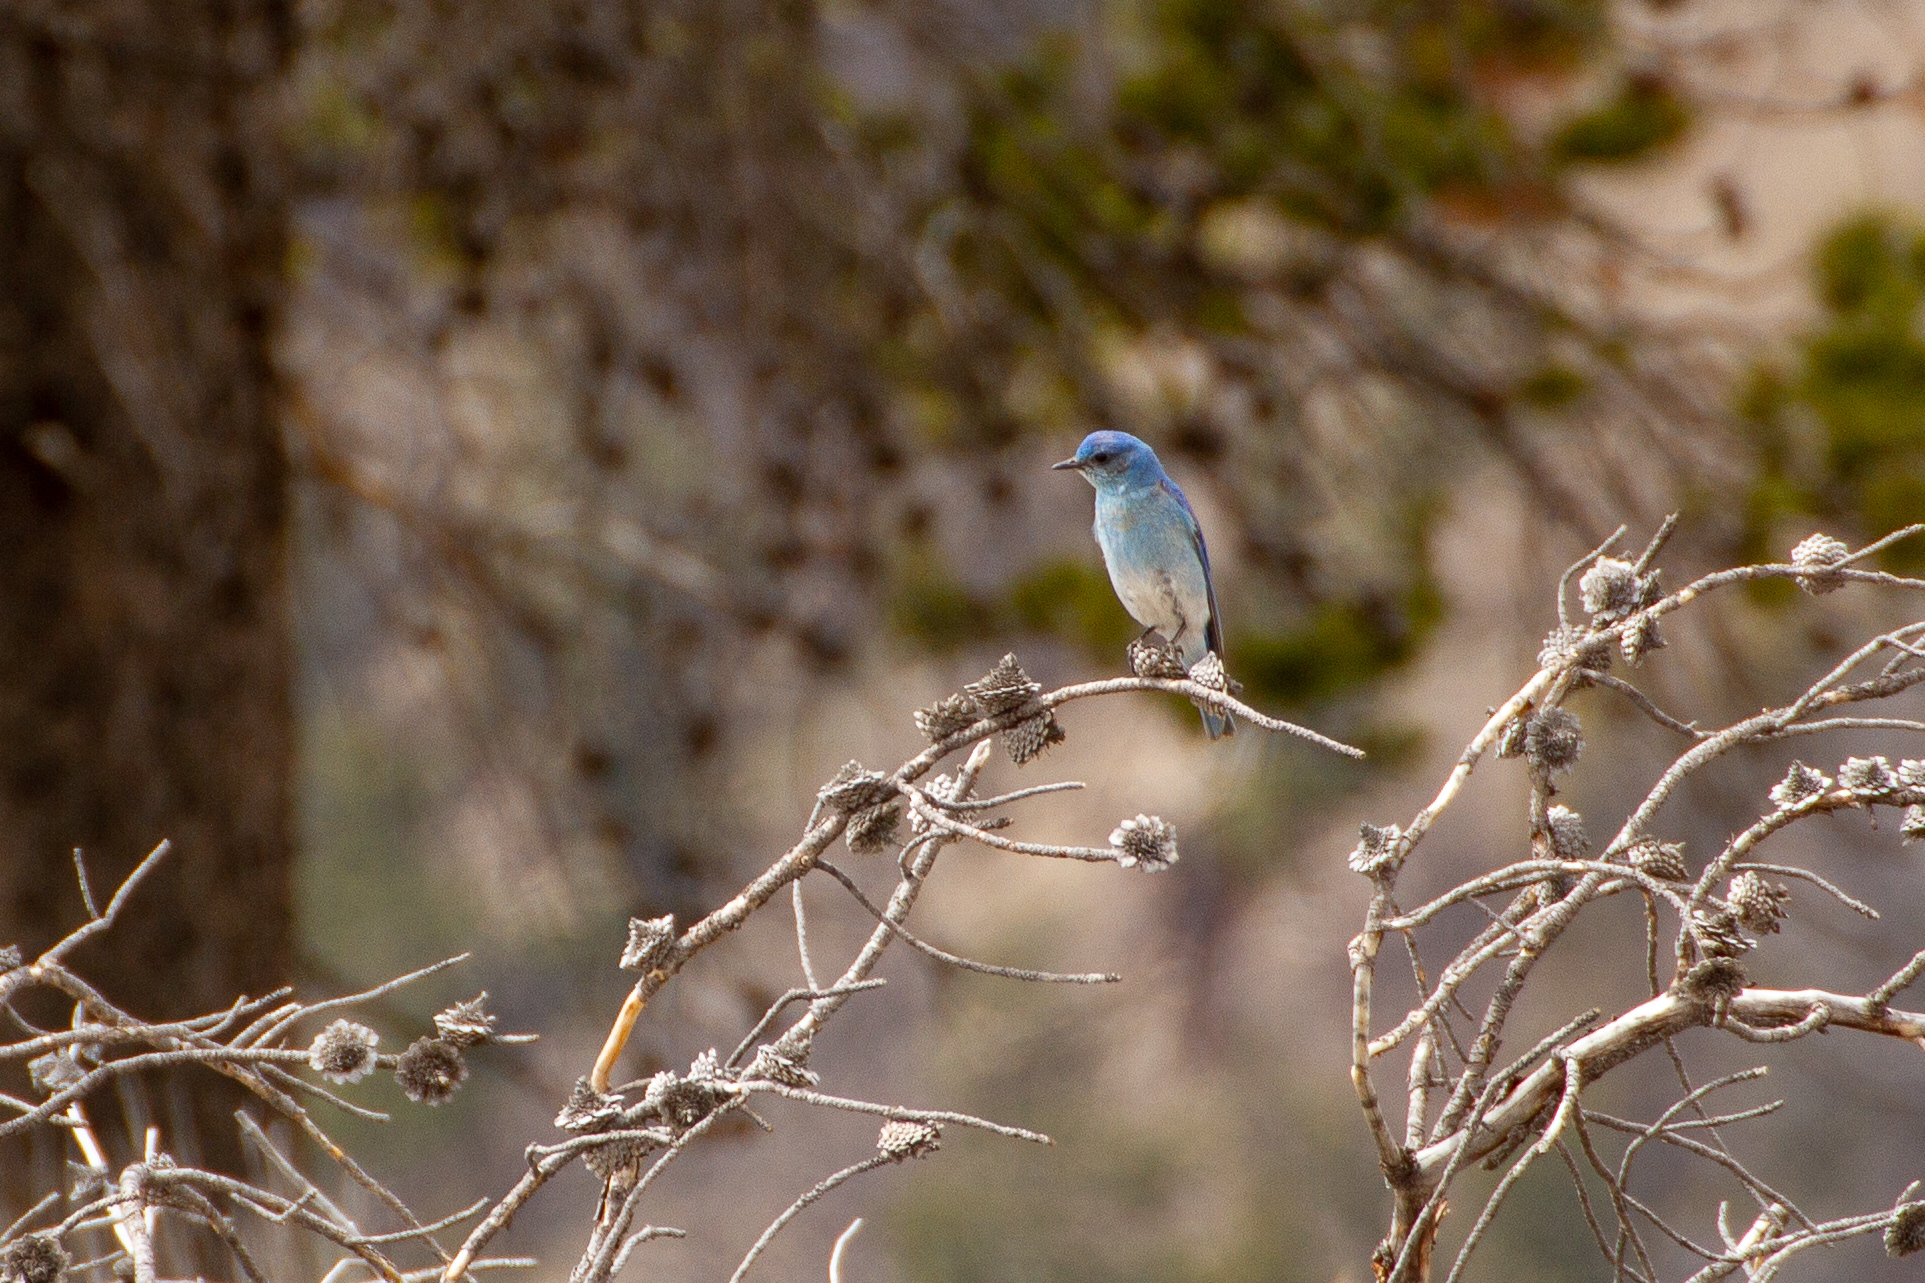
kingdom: Animalia
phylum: Chordata
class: Aves
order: Passeriformes
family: Turdidae
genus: Sialia
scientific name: Sialia currucoides
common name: Mountain bluebird
